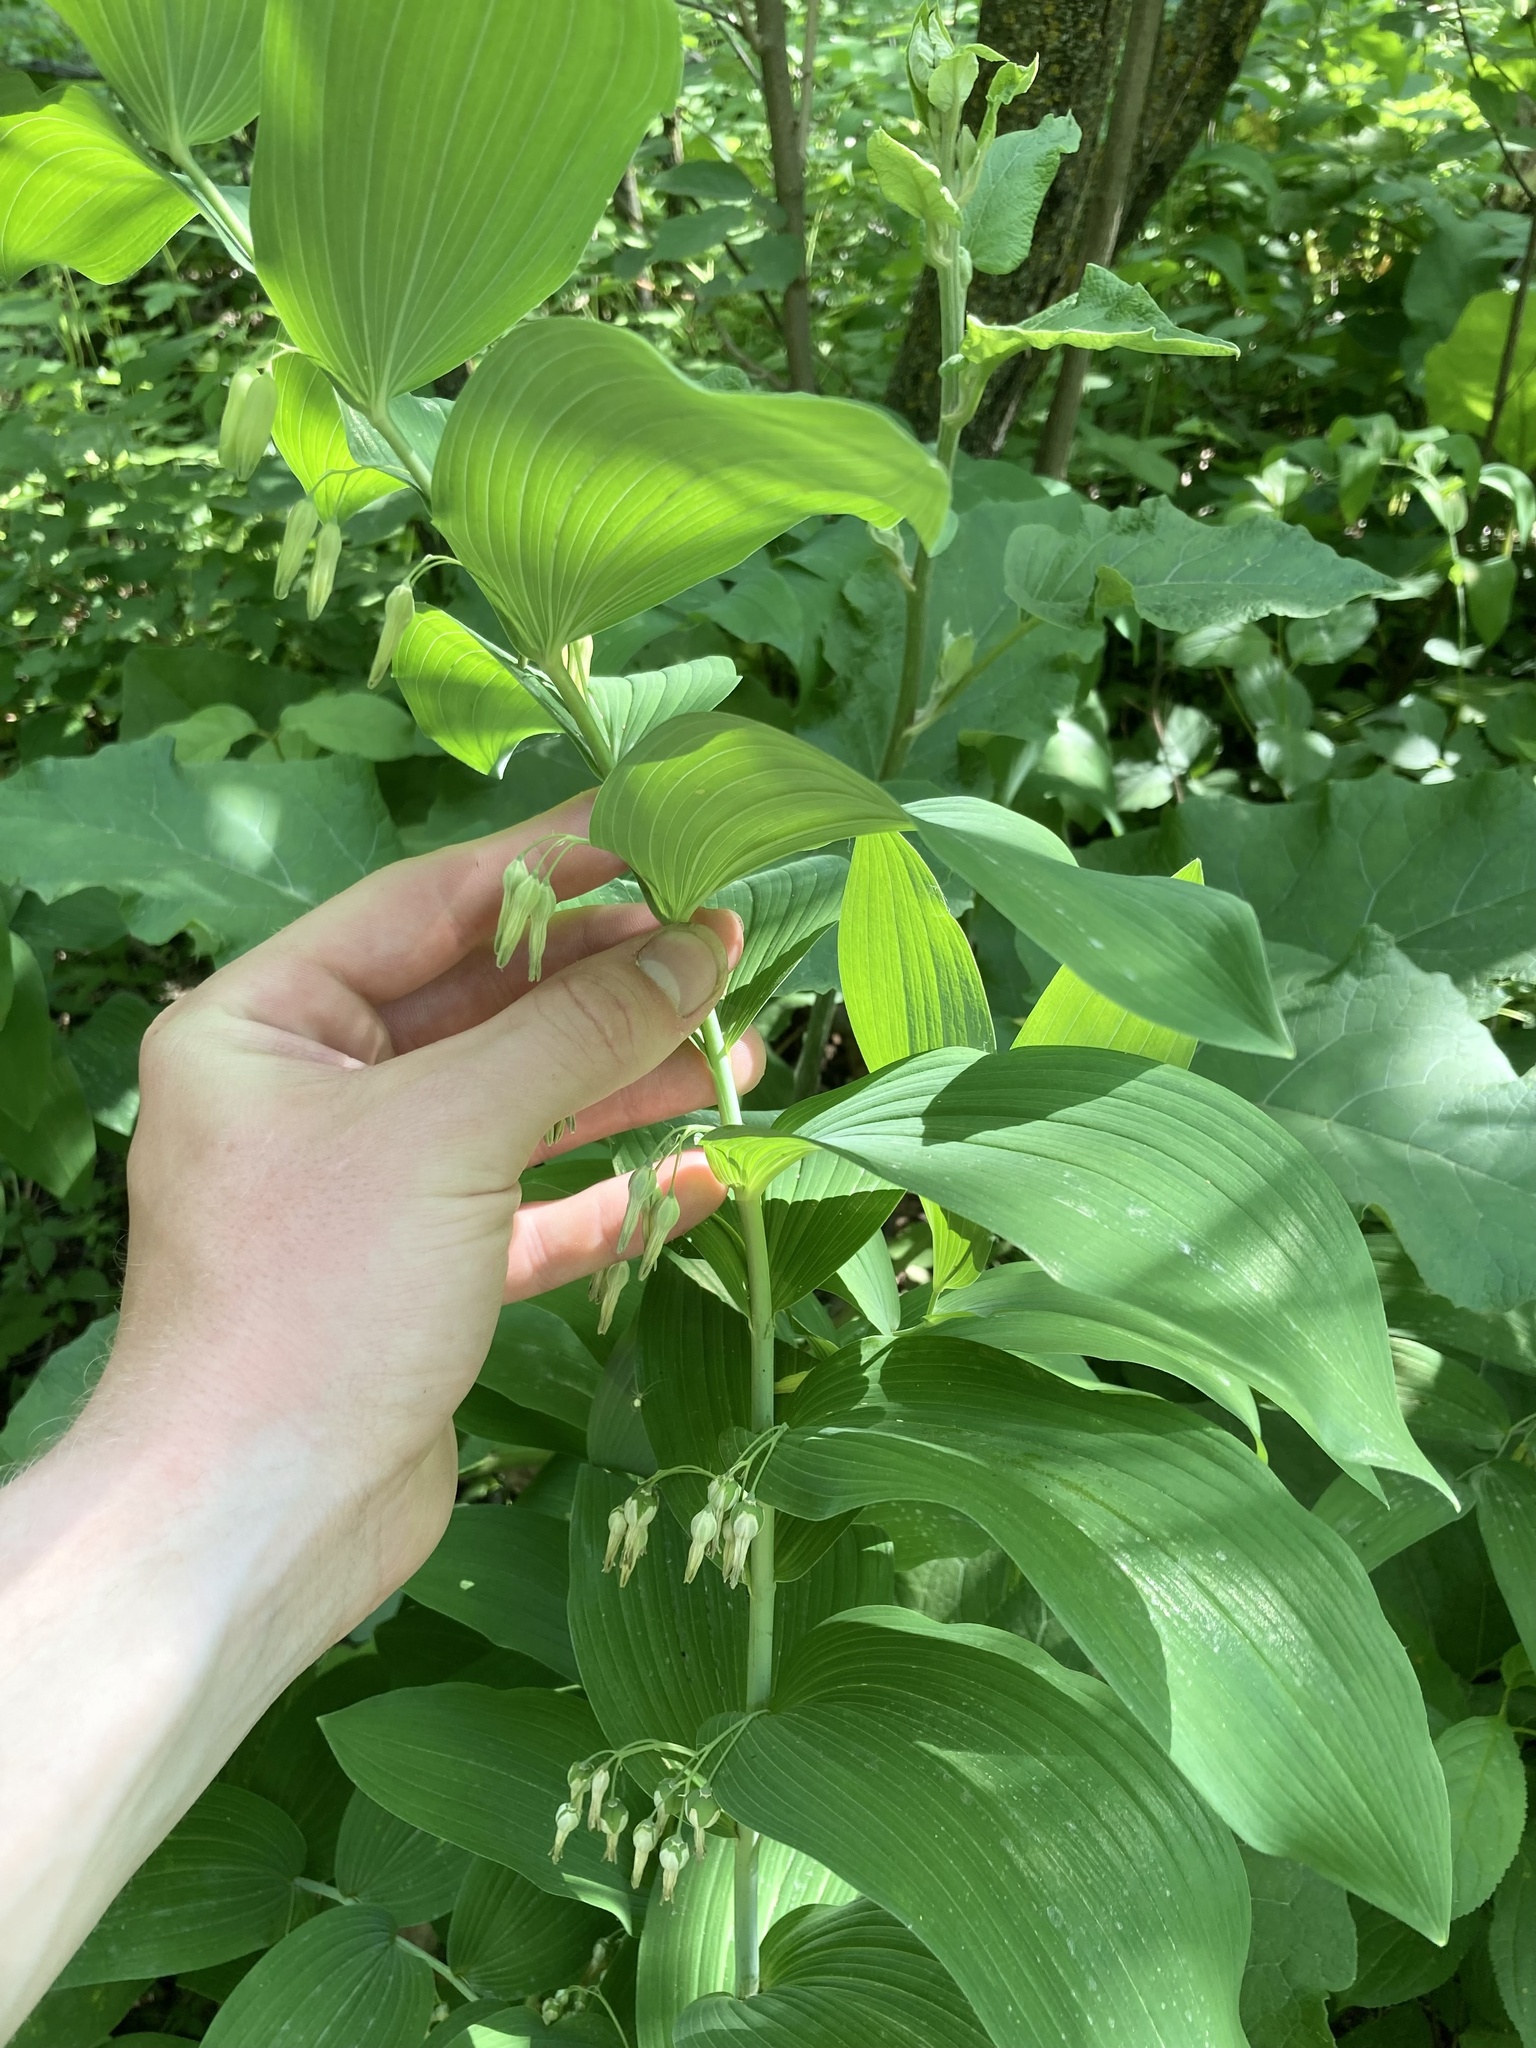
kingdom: Plantae
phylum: Tracheophyta
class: Liliopsida
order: Asparagales
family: Asparagaceae
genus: Polygonatum
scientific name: Polygonatum biflorum
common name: American solomon's-seal
